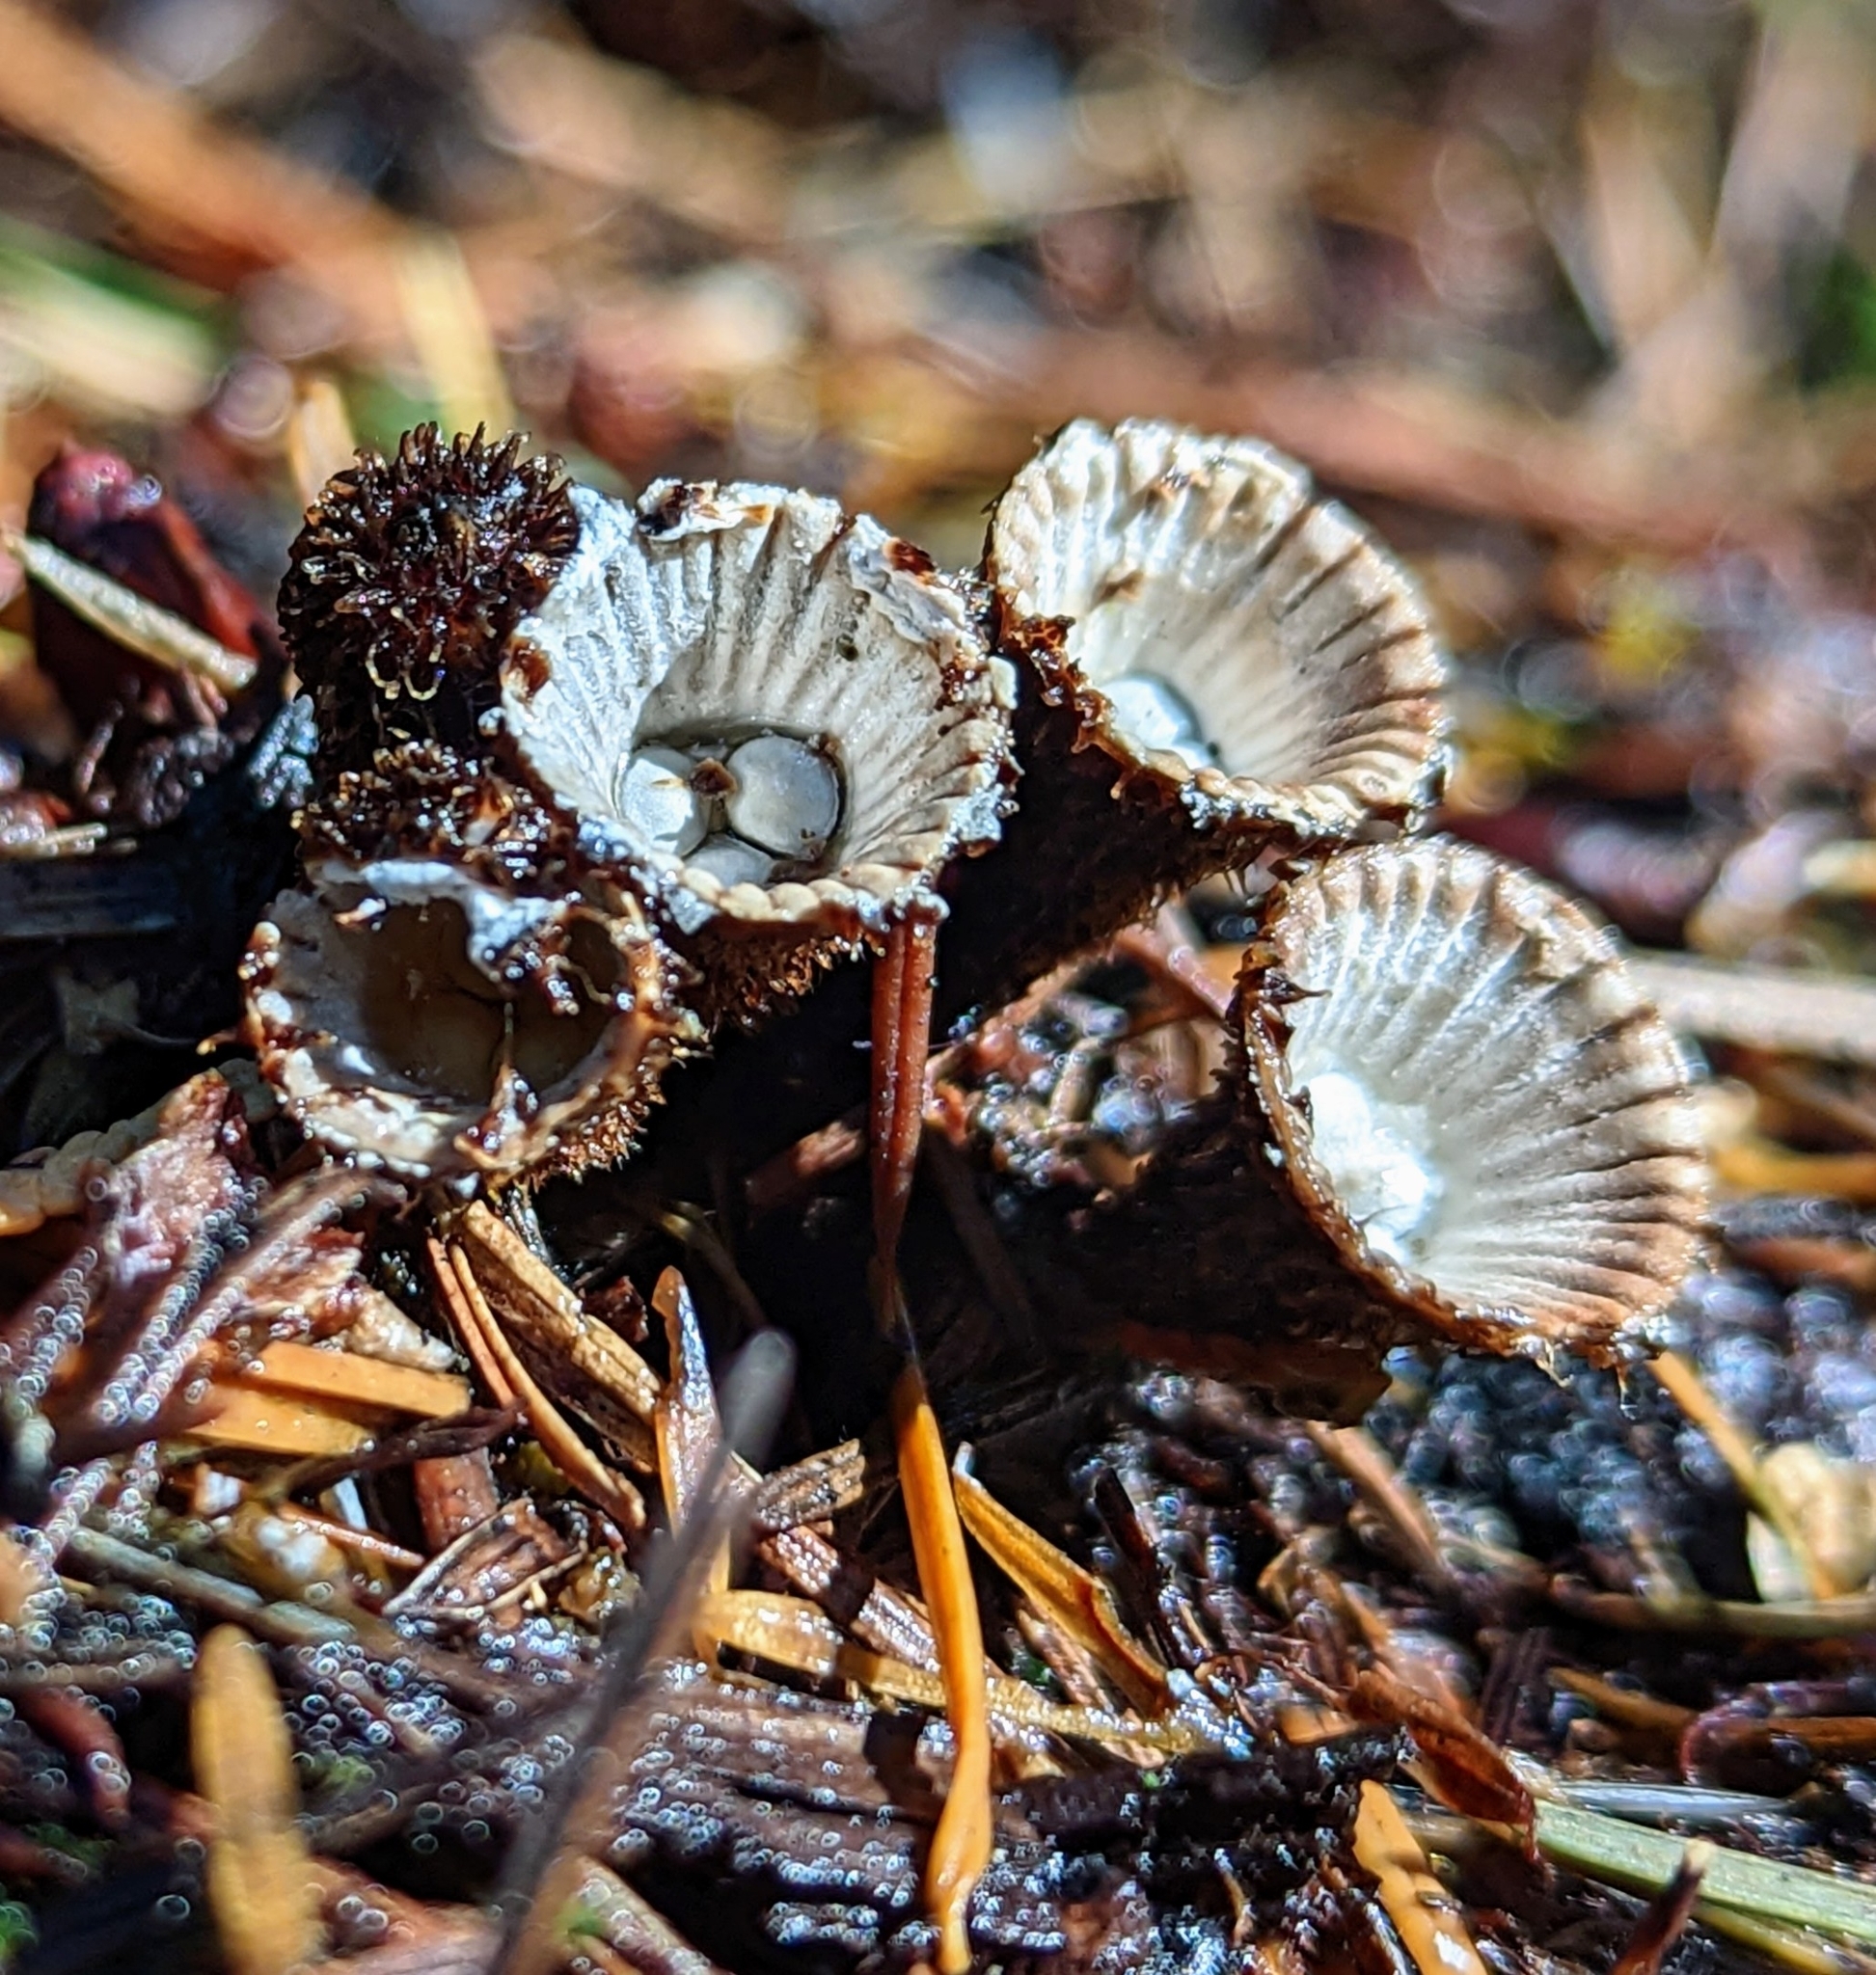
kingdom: Fungi
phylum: Basidiomycota
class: Agaricomycetes
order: Agaricales
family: Agaricaceae
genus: Cyathus
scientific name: Cyathus striatus
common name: Fluted bird's nest
